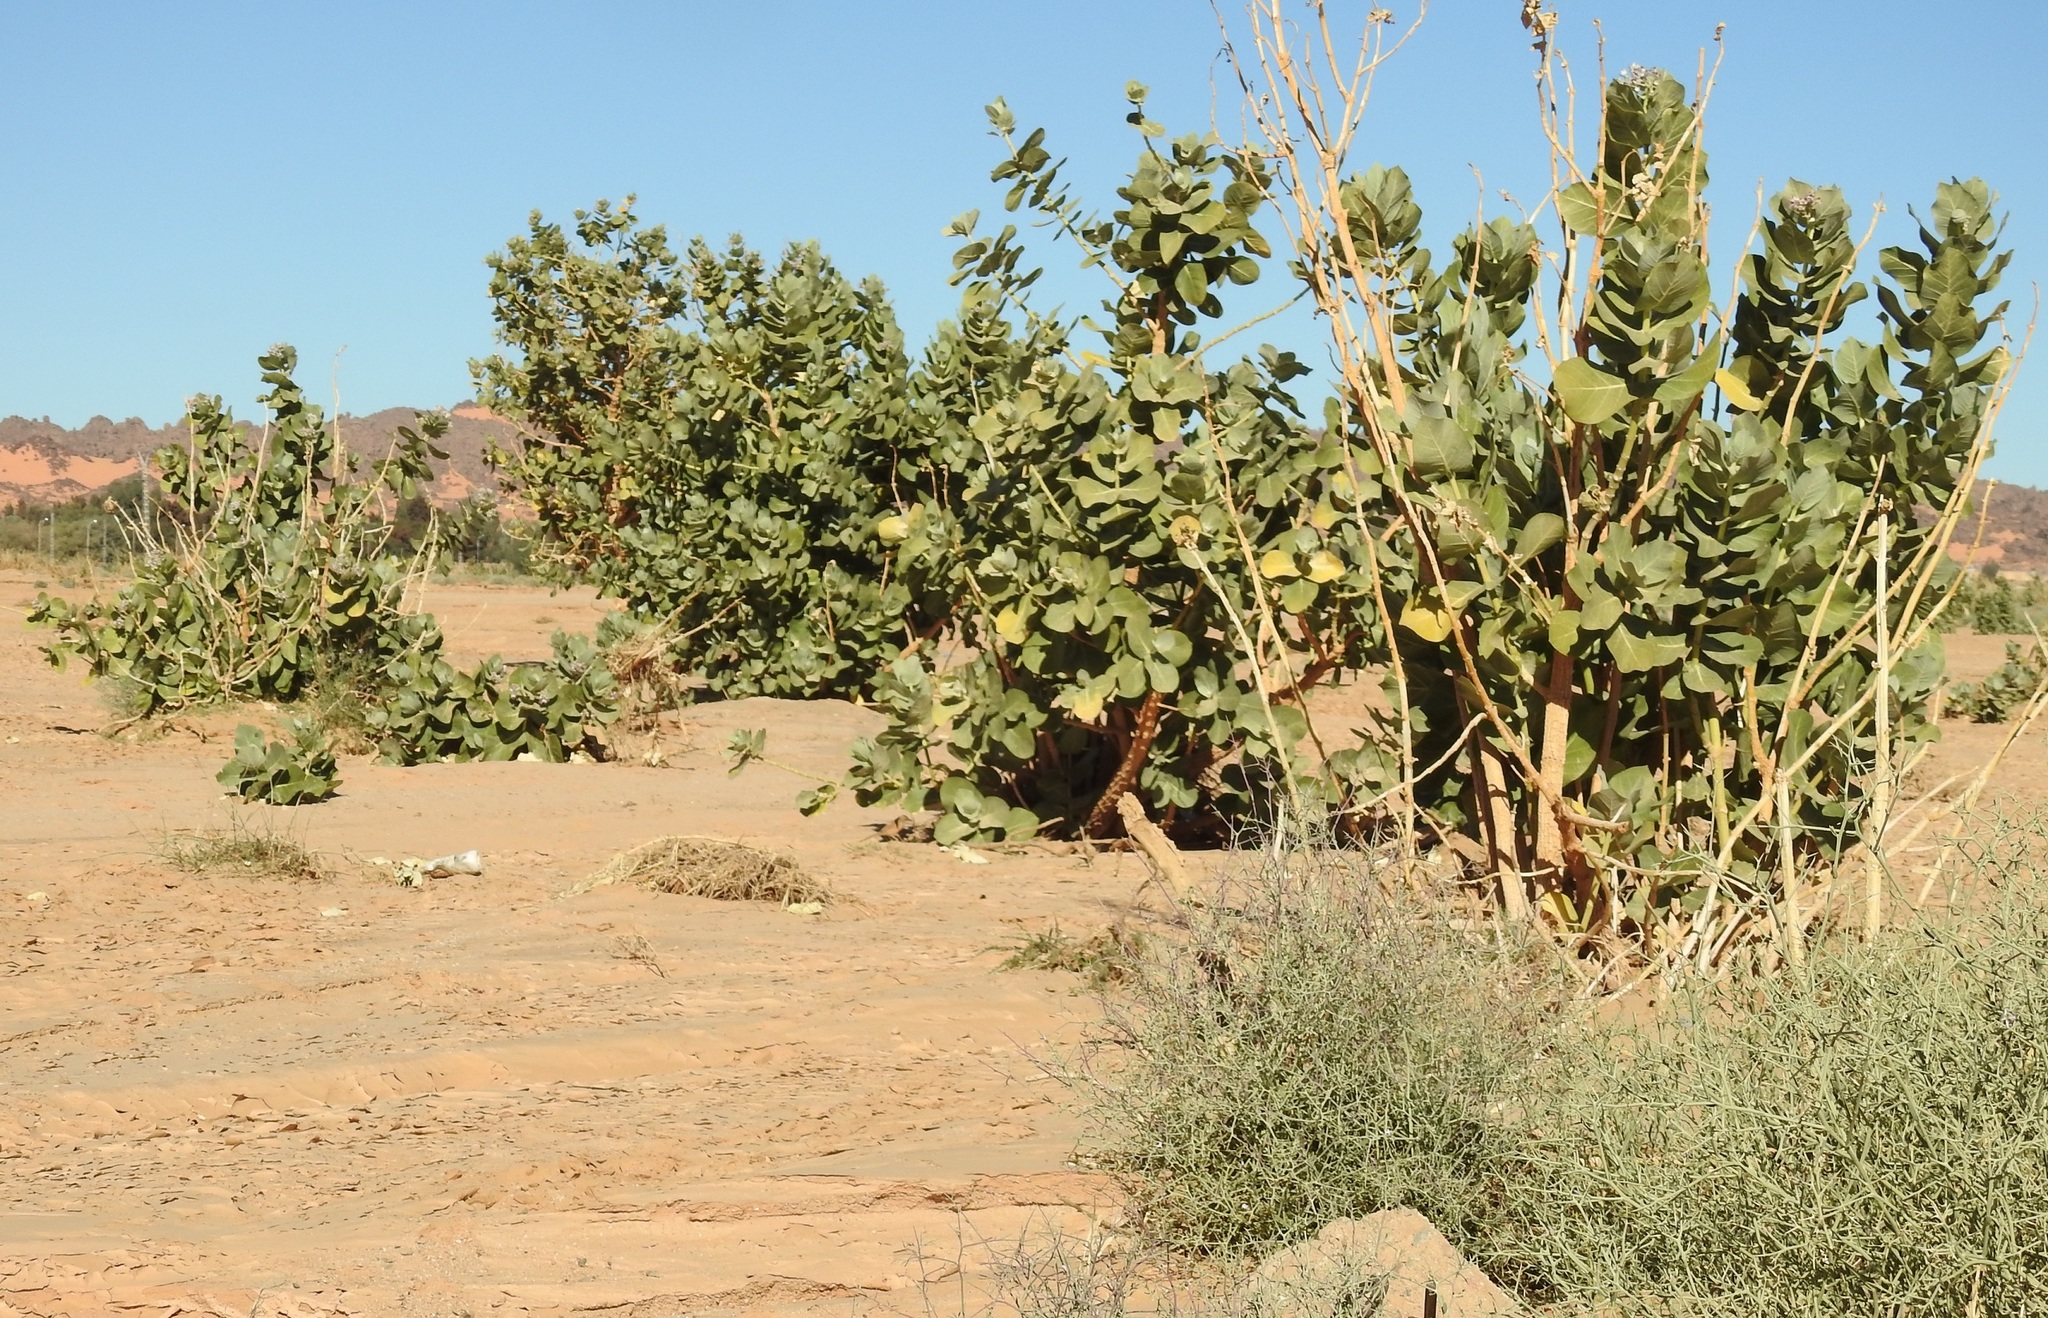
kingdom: Plantae
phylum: Tracheophyta
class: Magnoliopsida
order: Gentianales
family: Apocynaceae
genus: Calotropis
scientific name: Calotropis procera
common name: Roostertree
